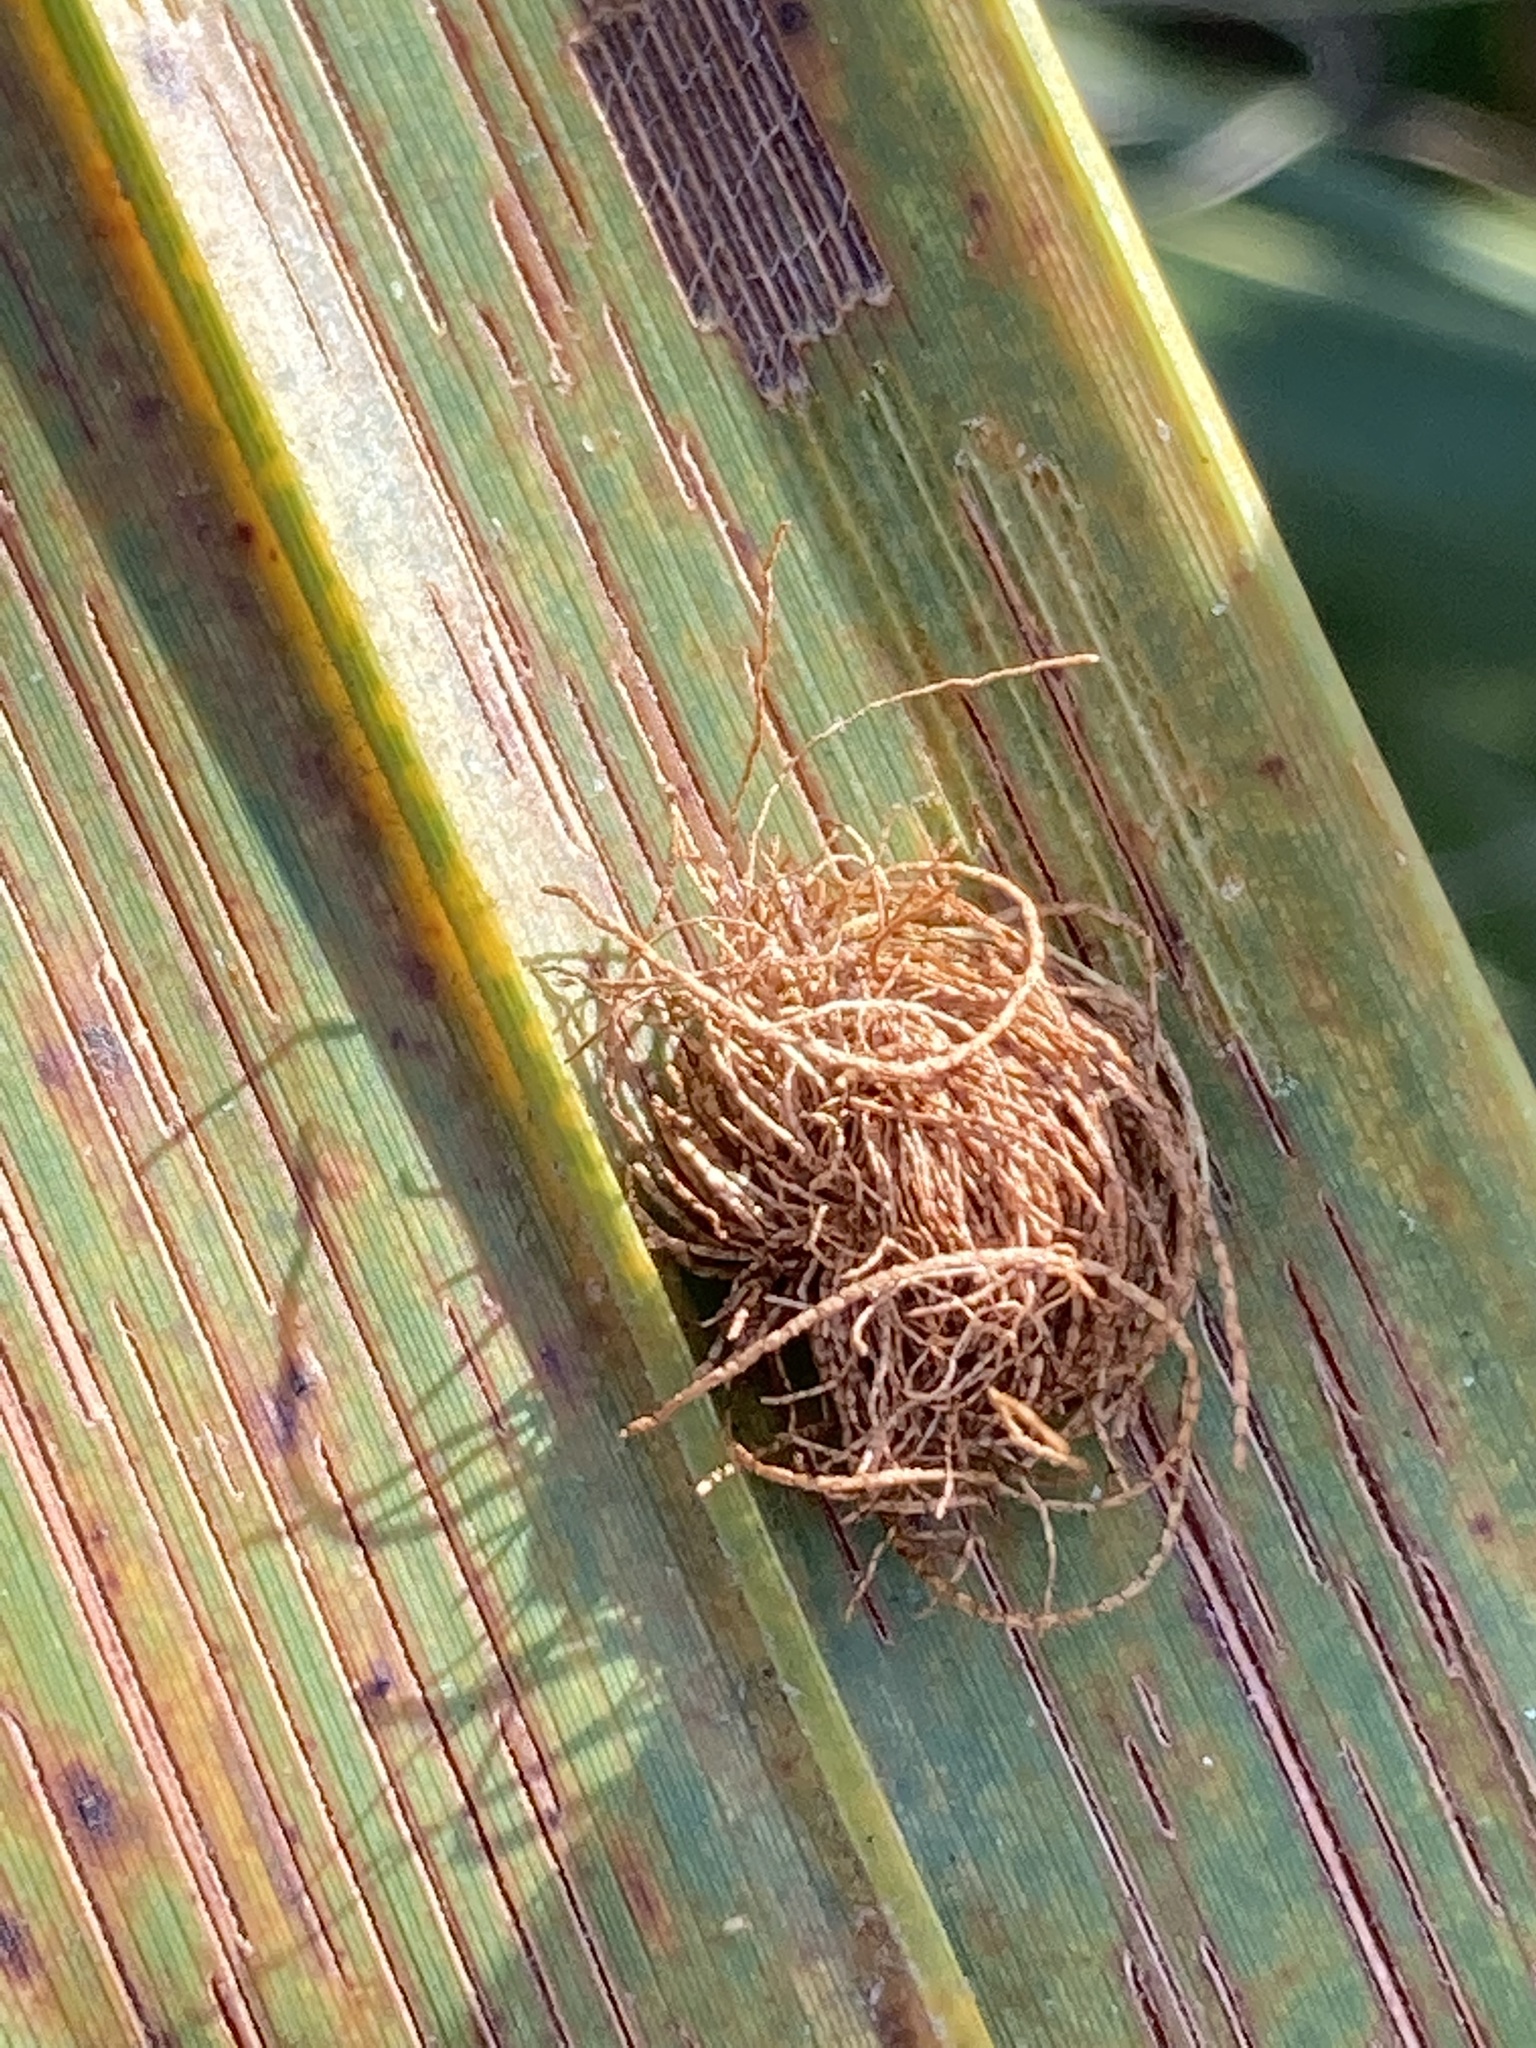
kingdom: Animalia
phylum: Arthropoda
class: Insecta
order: Coleoptera
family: Chrysomelidae
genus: Hemisphaerota
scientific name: Hemisphaerota cyanea
